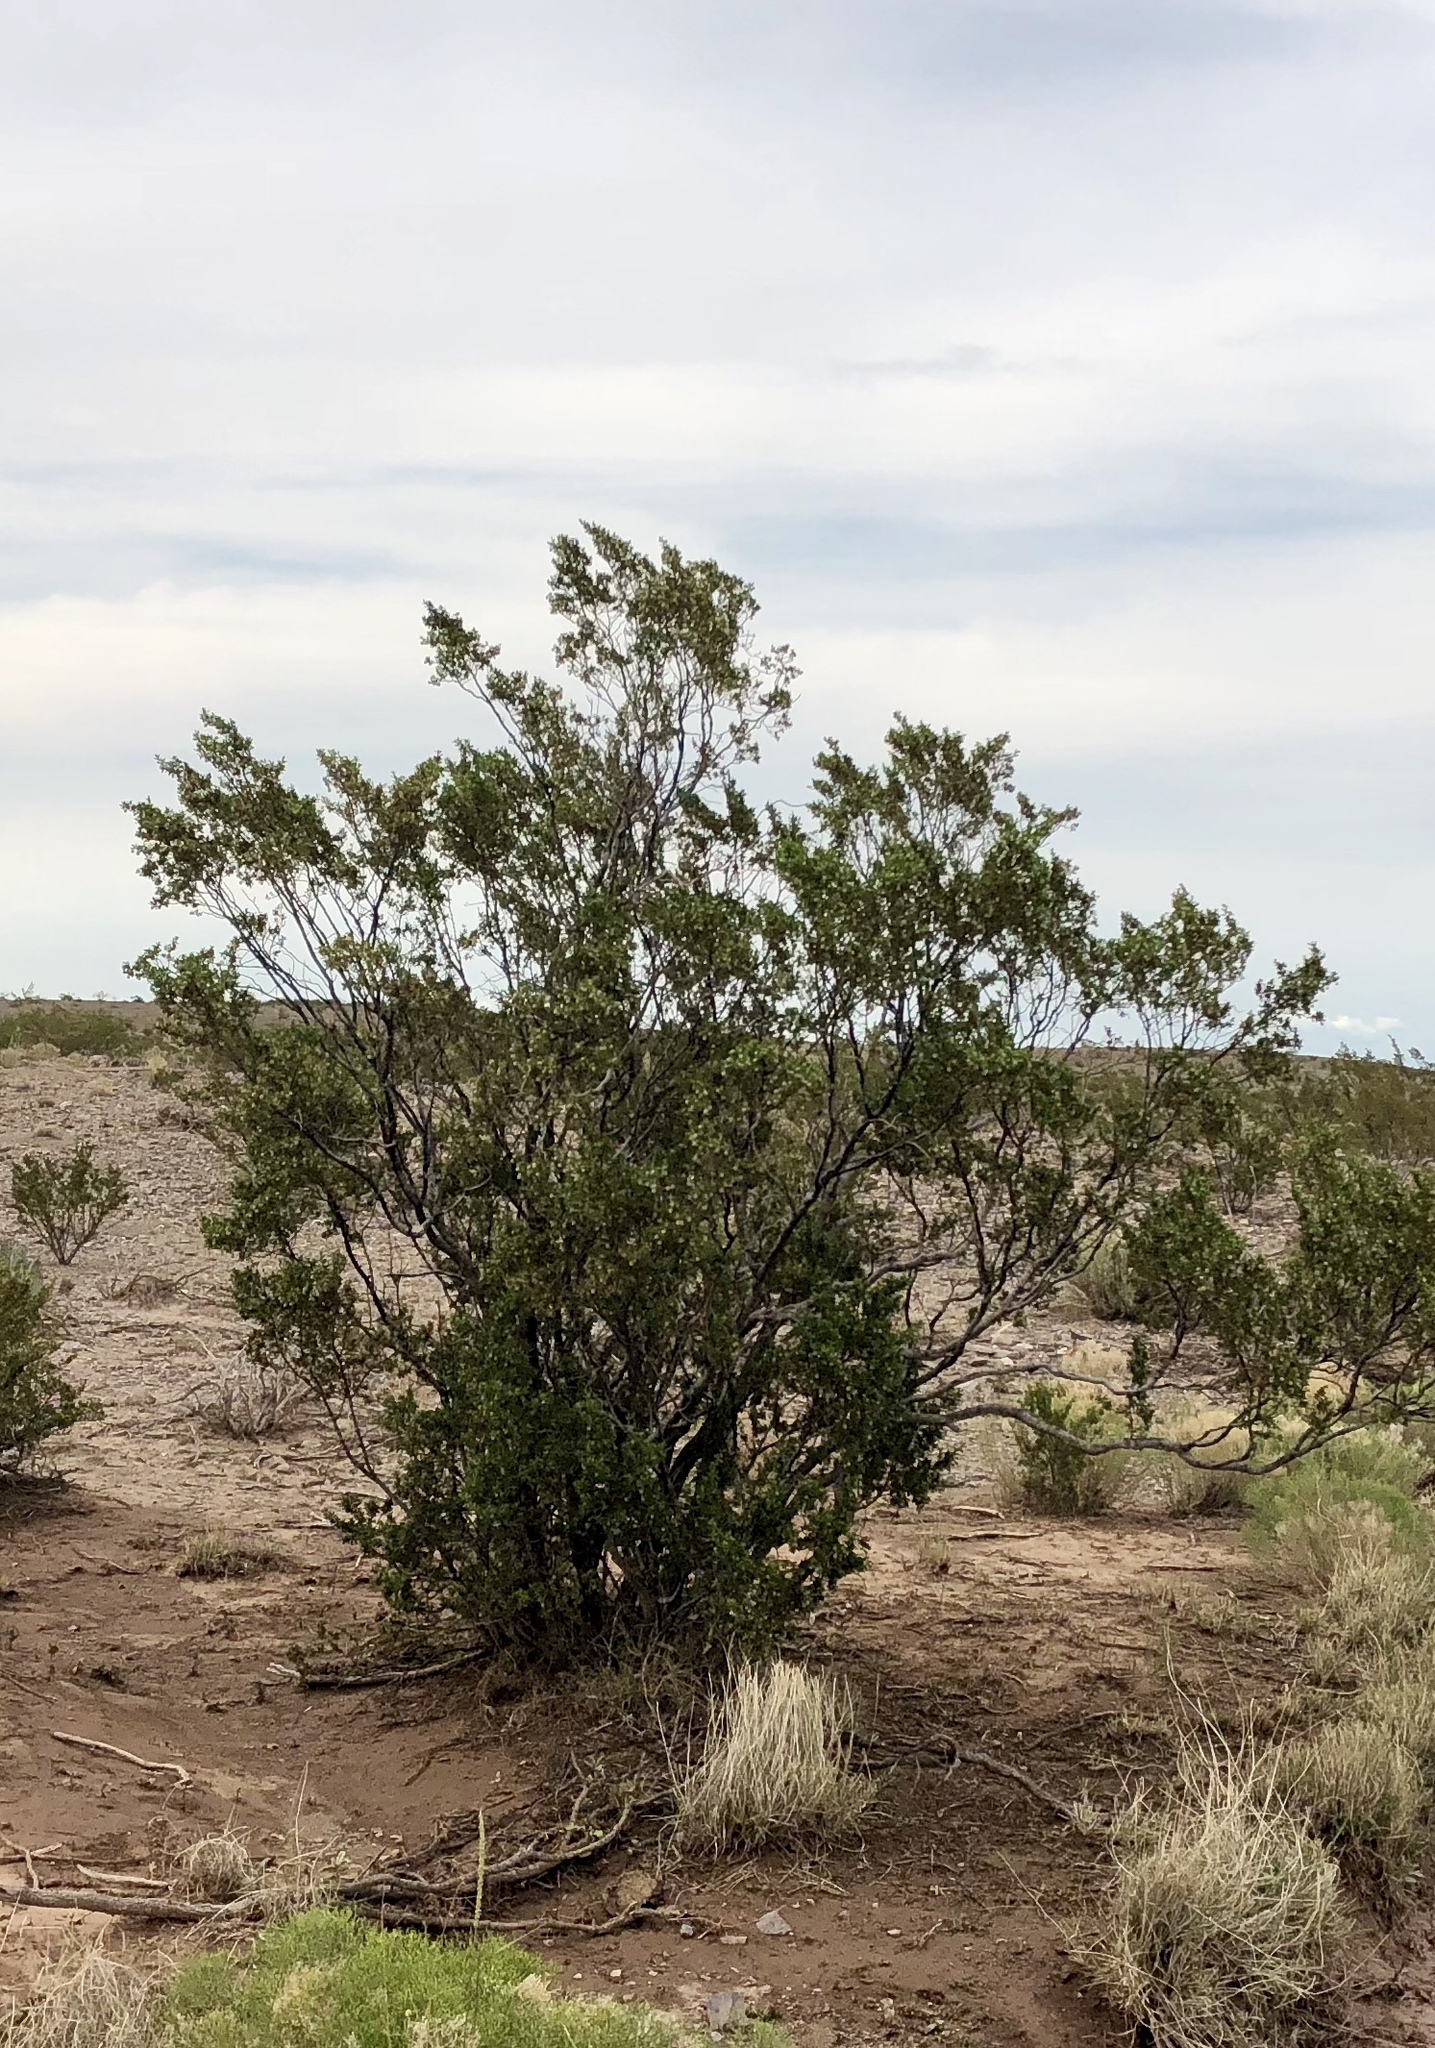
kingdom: Plantae
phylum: Tracheophyta
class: Magnoliopsida
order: Zygophyllales
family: Zygophyllaceae
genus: Larrea
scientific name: Larrea tridentata
